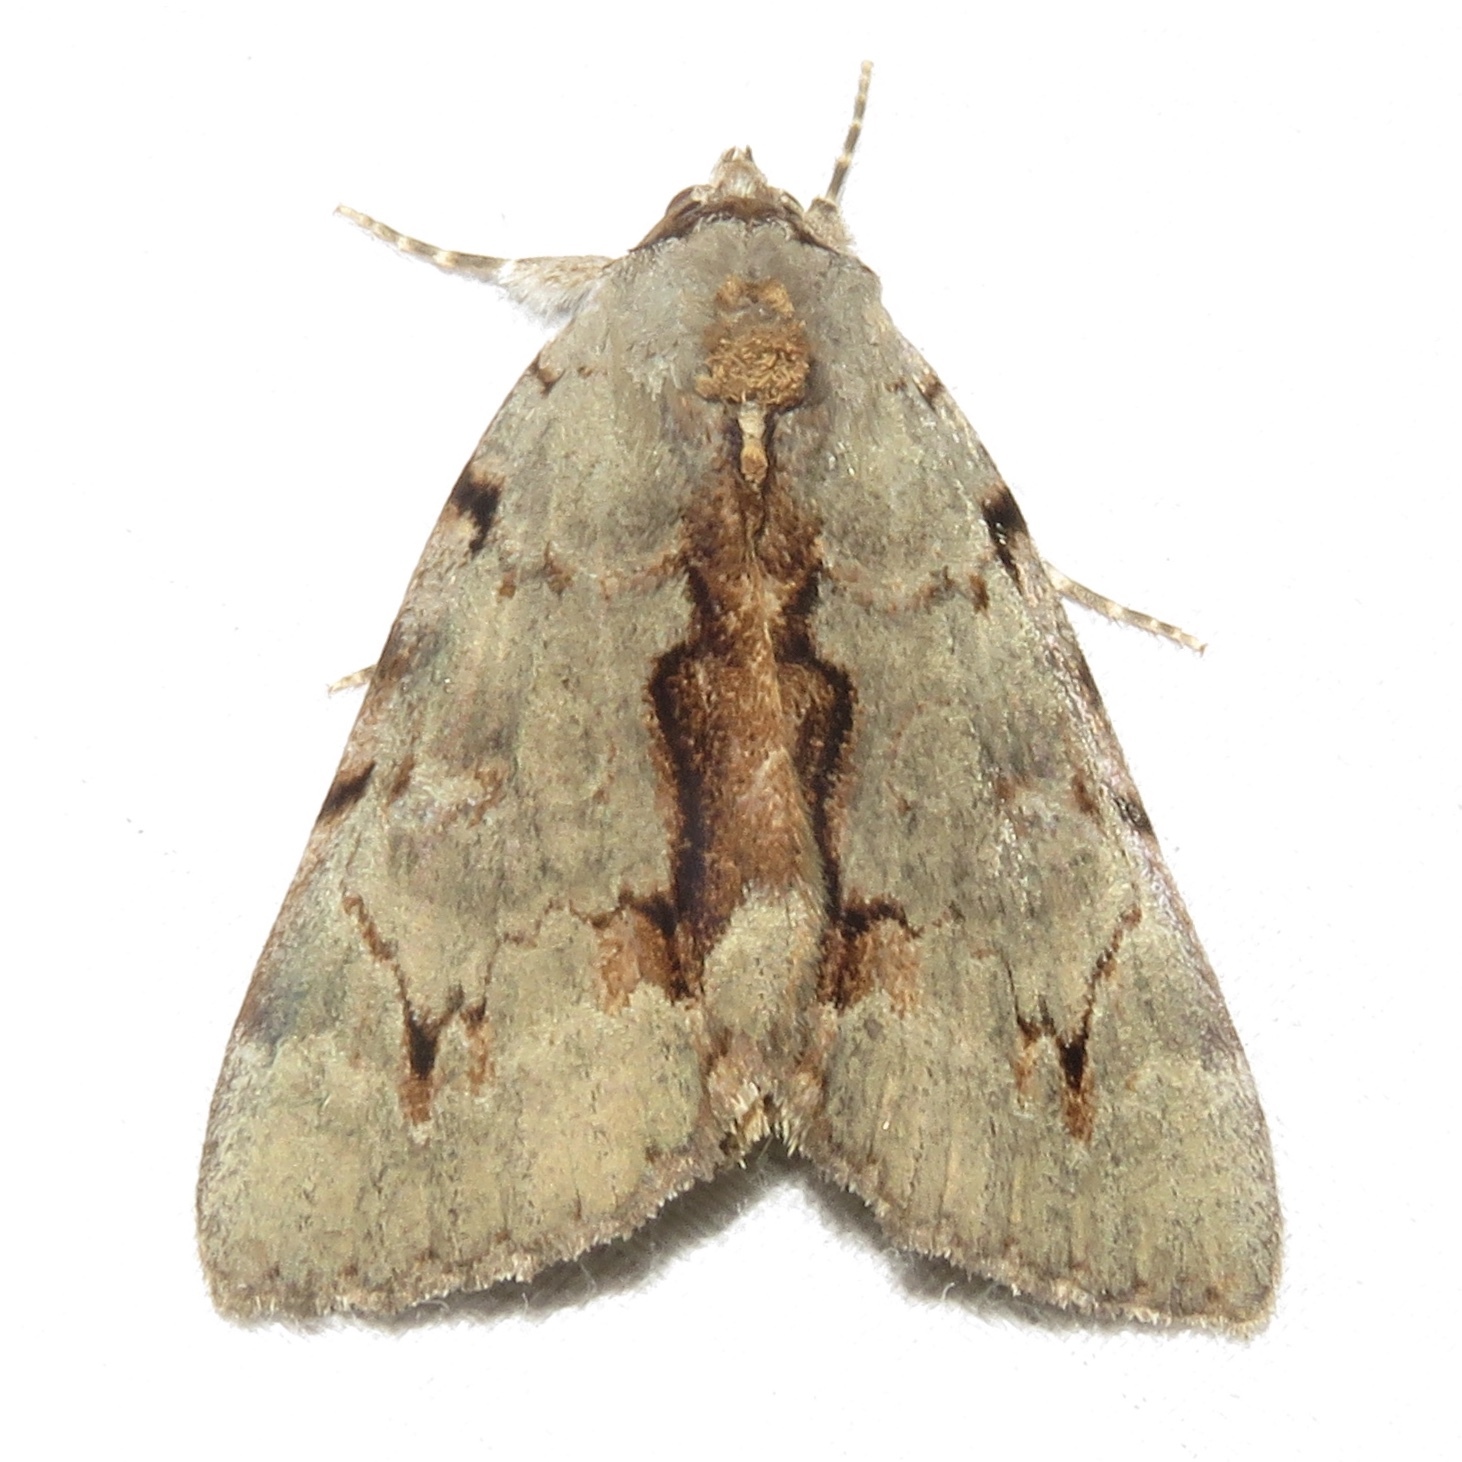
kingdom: Animalia
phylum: Arthropoda
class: Insecta
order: Lepidoptera
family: Erebidae
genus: Catocala
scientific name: Catocala grynea
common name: Woody underwing
